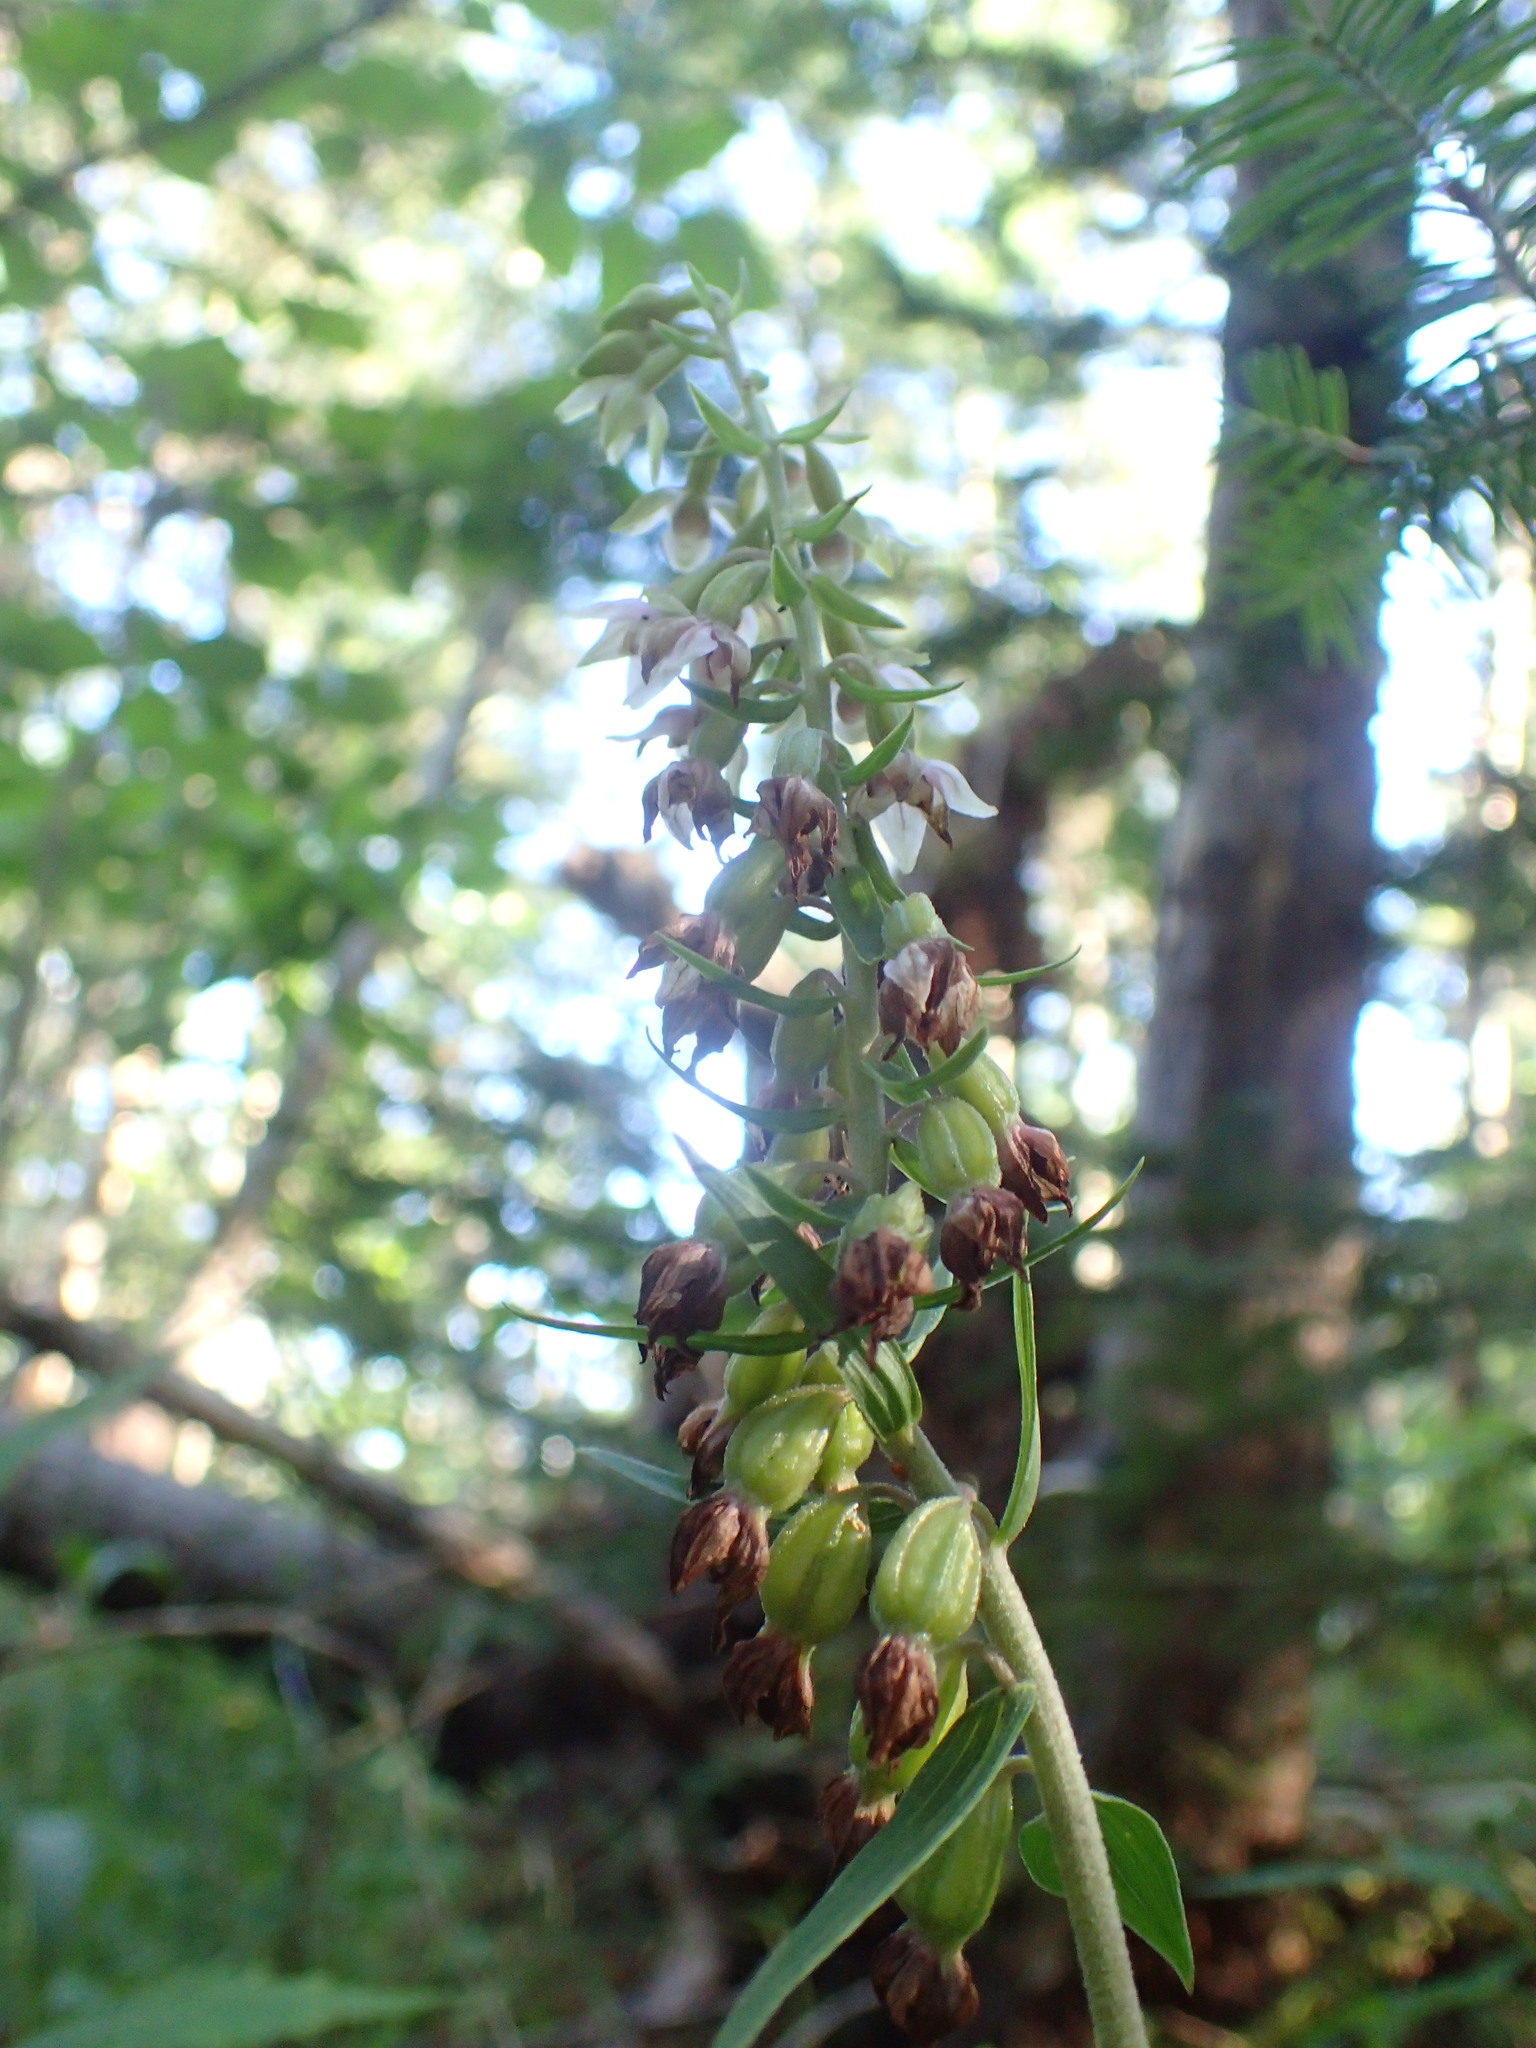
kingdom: Plantae
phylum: Tracheophyta
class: Liliopsida
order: Asparagales
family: Orchidaceae
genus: Epipactis
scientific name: Epipactis helleborine
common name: Broad-leaved helleborine
